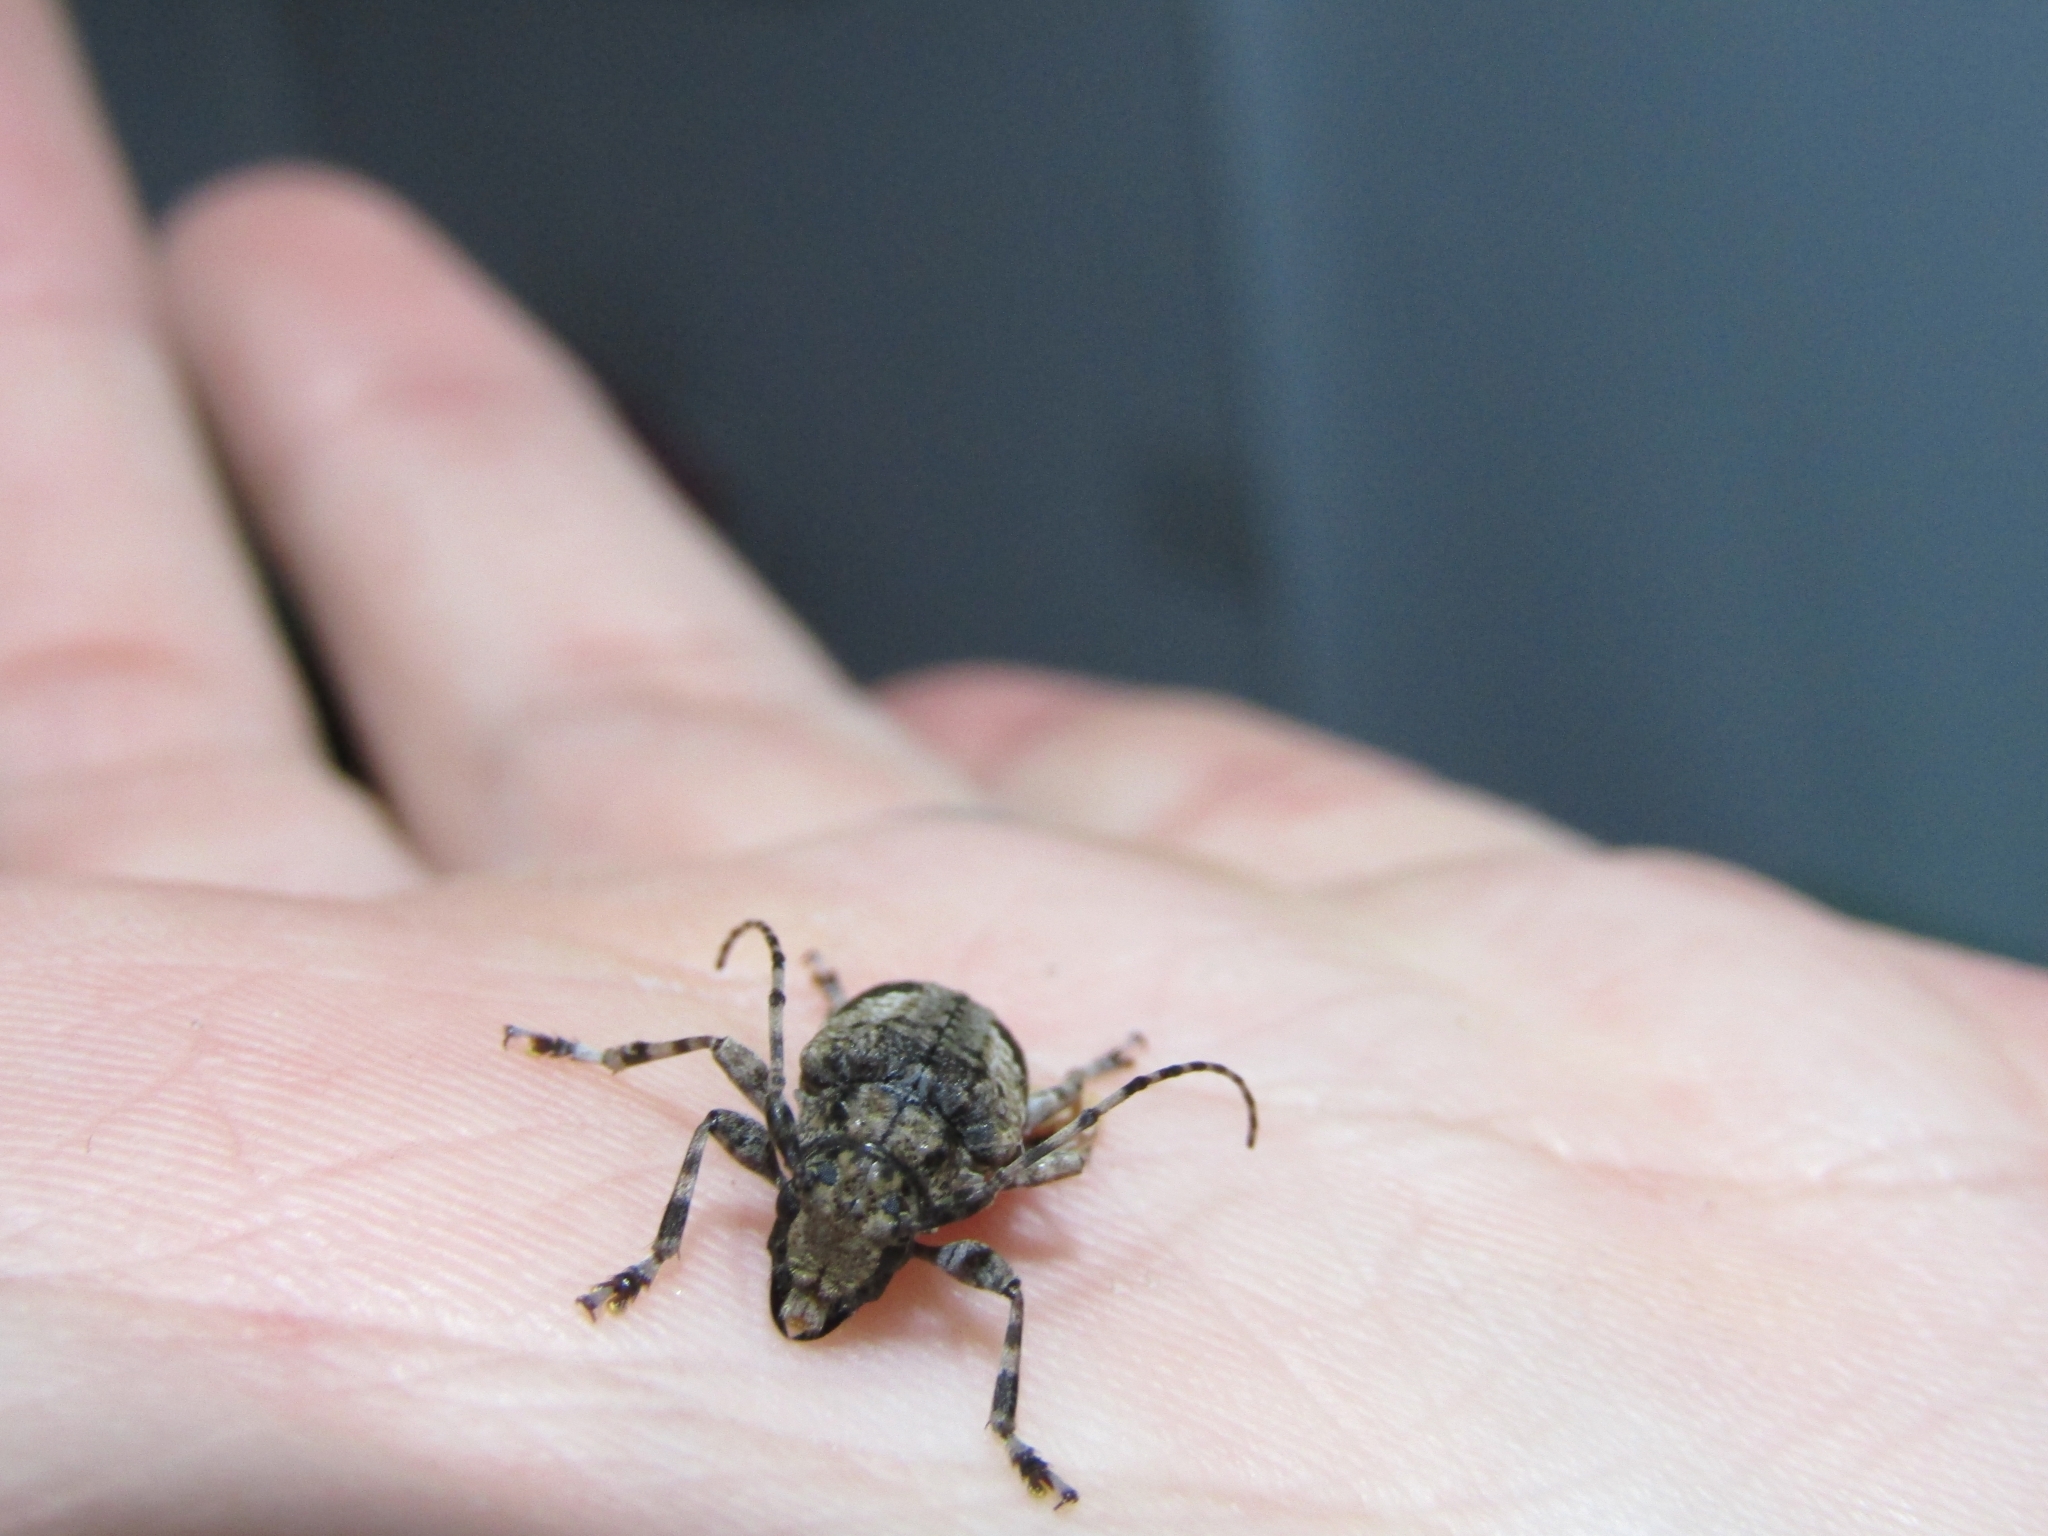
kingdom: Animalia
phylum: Arthropoda
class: Insecta
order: Coleoptera
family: Cerambycidae
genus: Psapharochrus
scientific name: Psapharochrus jaspideus
